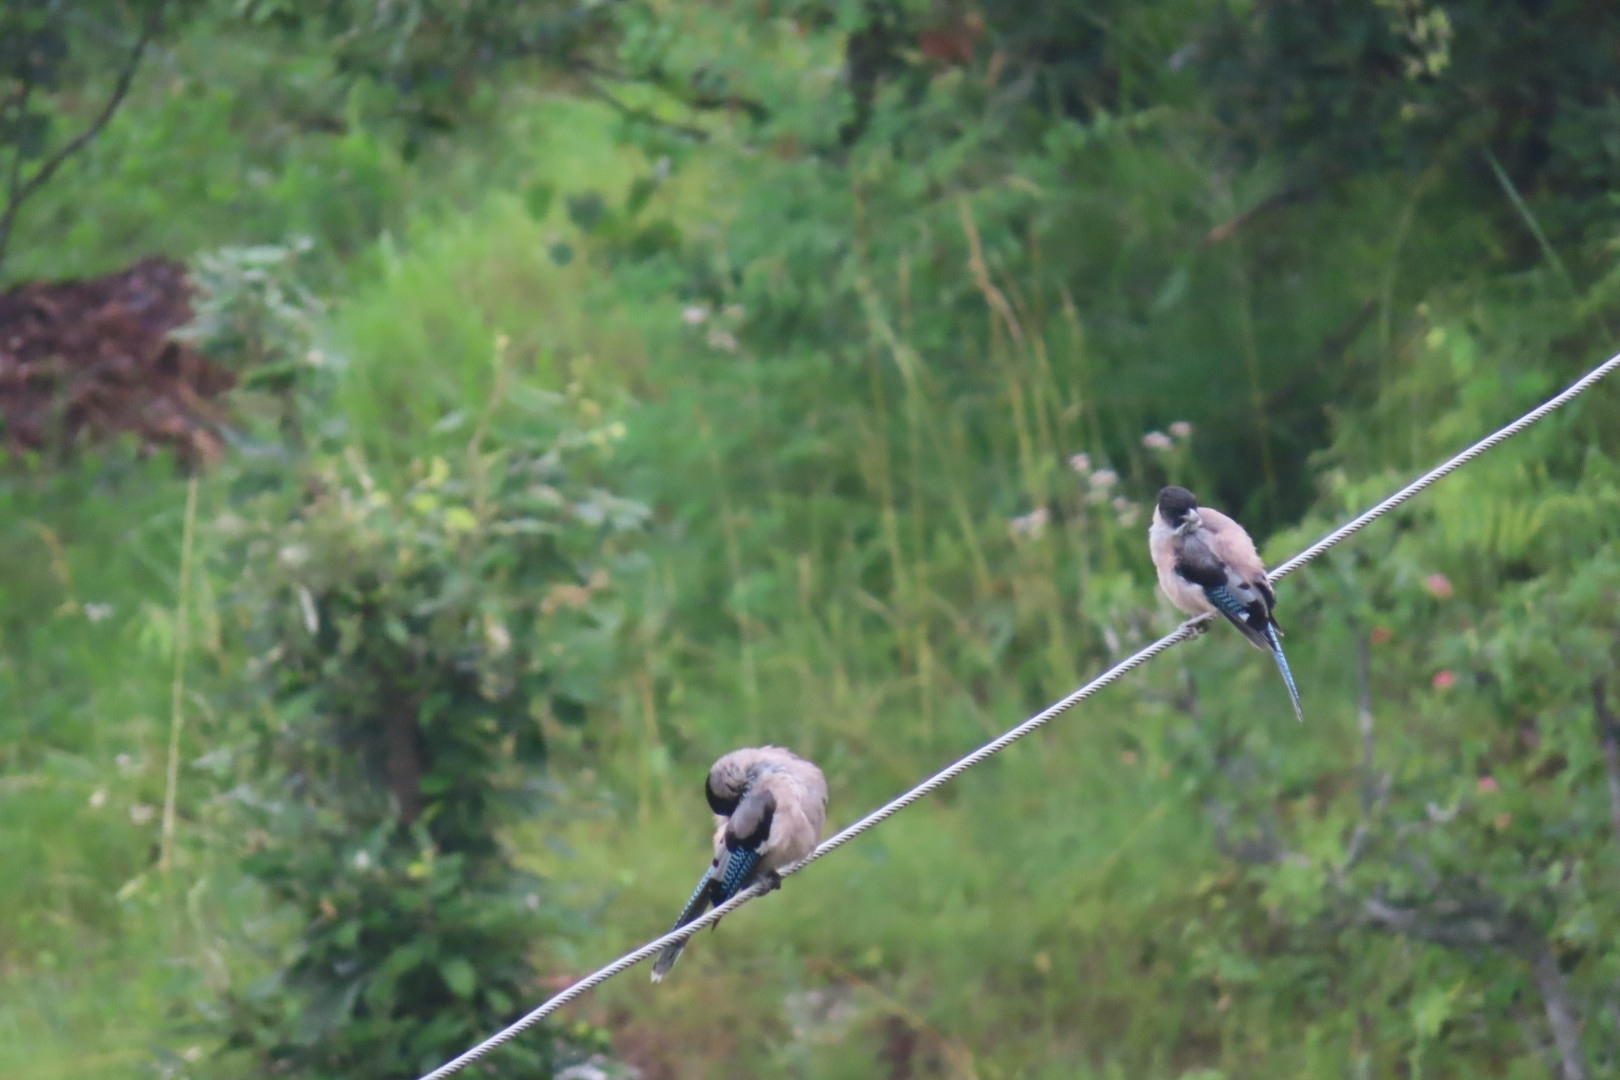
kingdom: Animalia
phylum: Chordata
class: Aves
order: Passeriformes
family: Corvidae
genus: Garrulus
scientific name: Garrulus lanceolatus
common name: Black-headed jay
